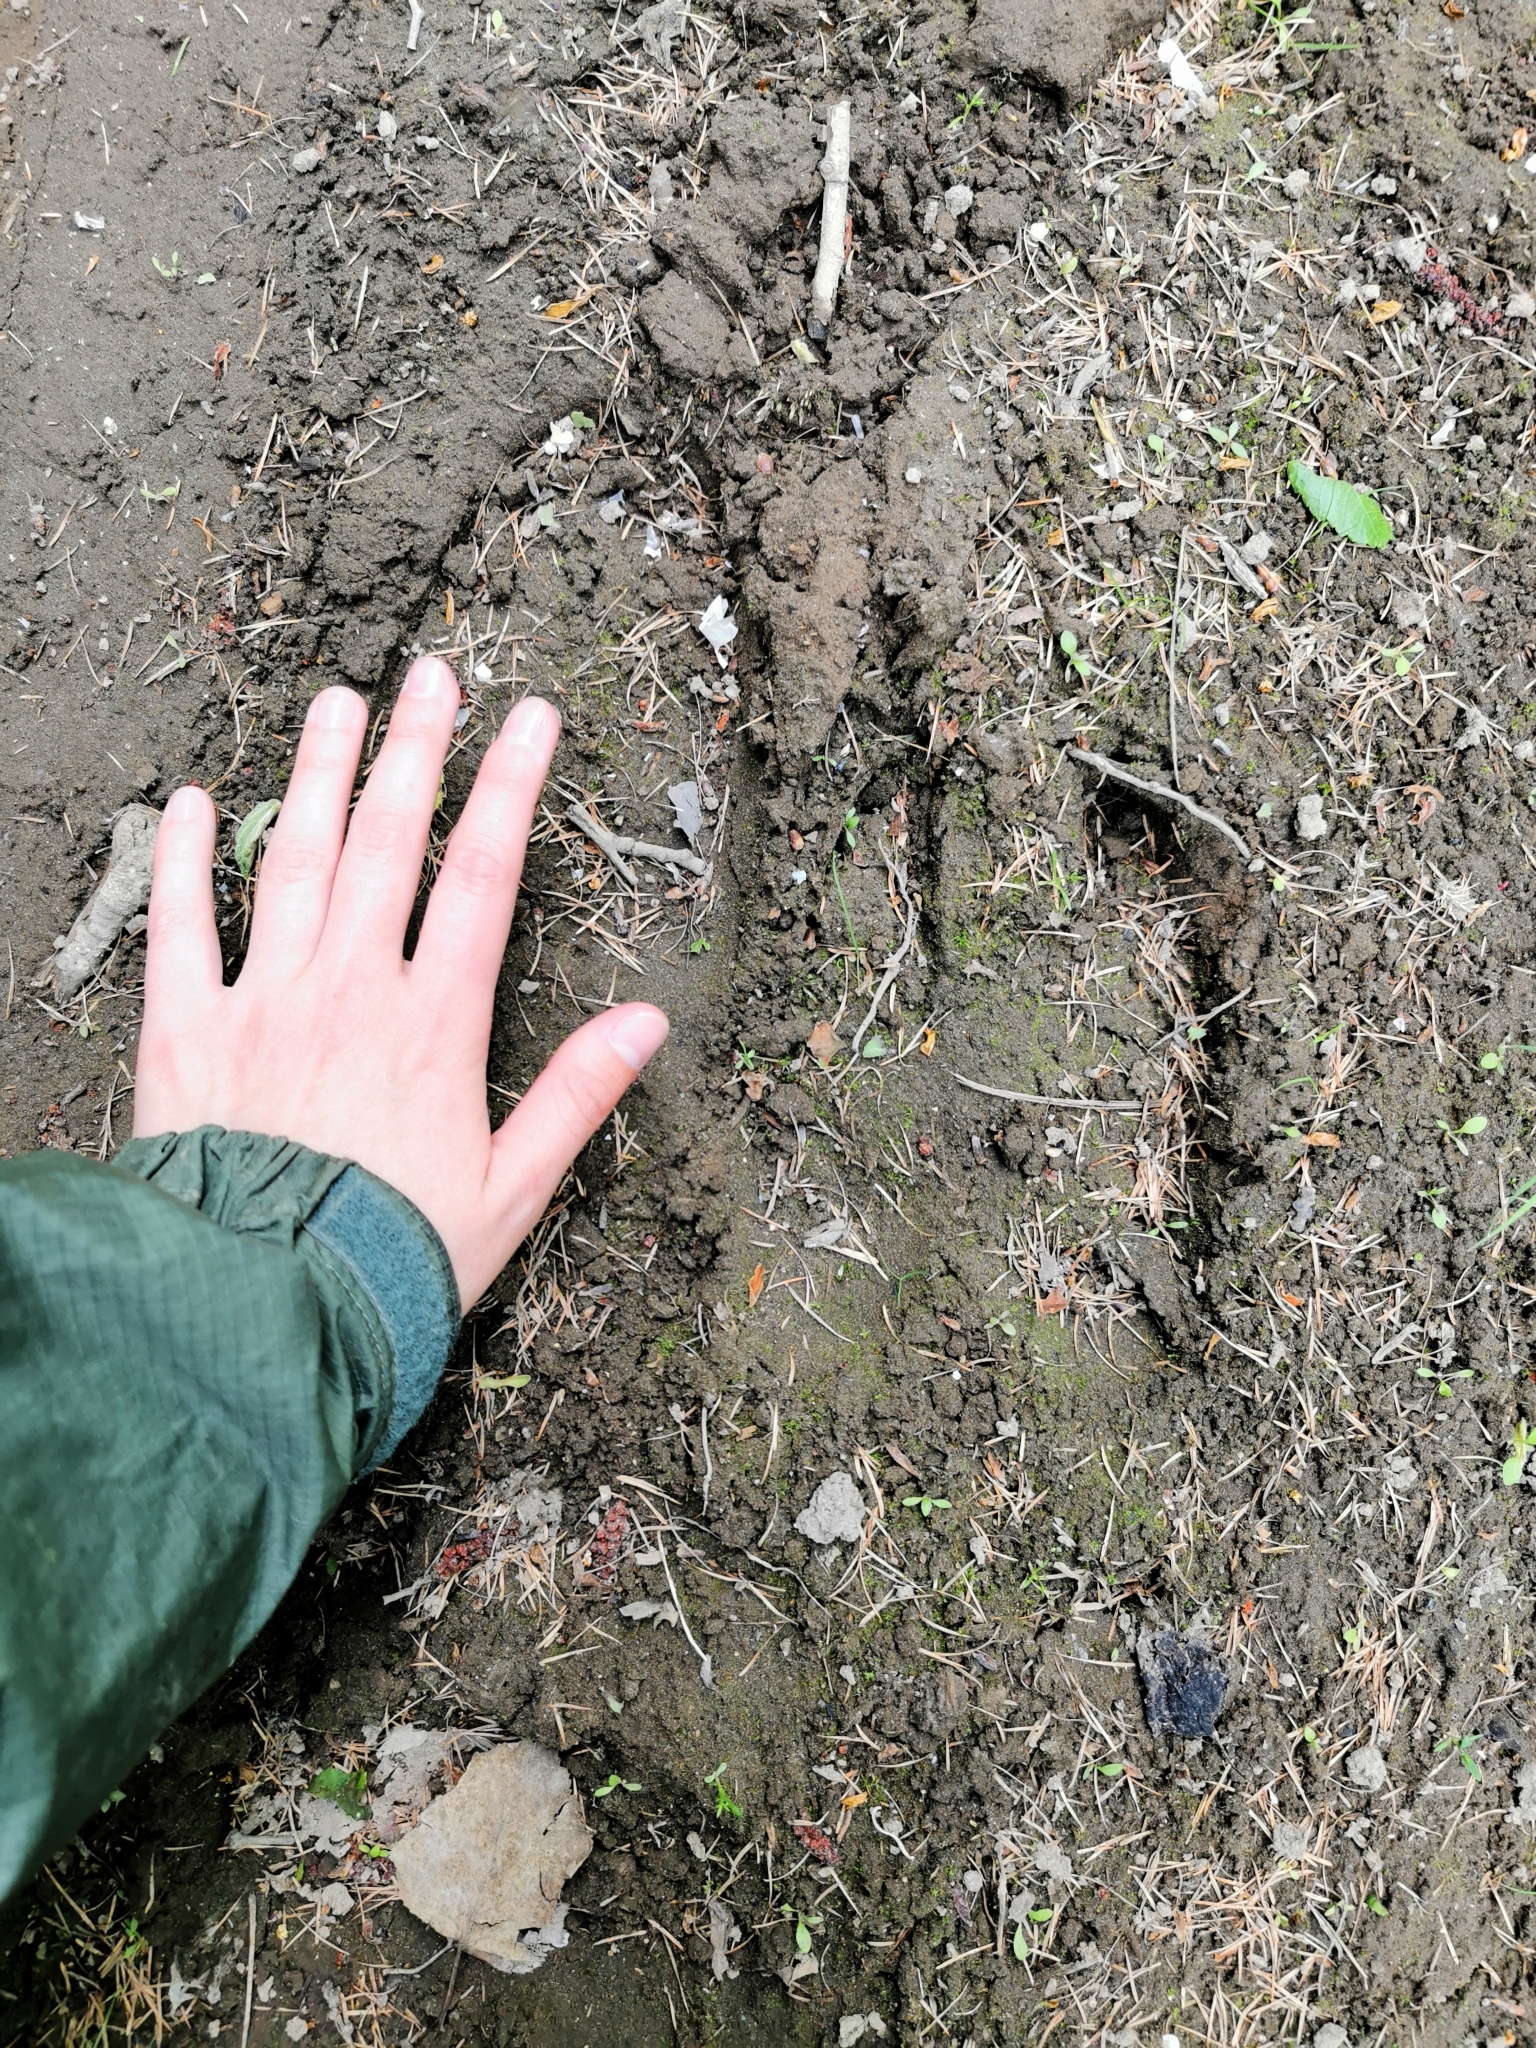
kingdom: Animalia
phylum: Chordata
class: Mammalia
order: Artiodactyla
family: Cervidae
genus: Alces
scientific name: Alces alces
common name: Moose
